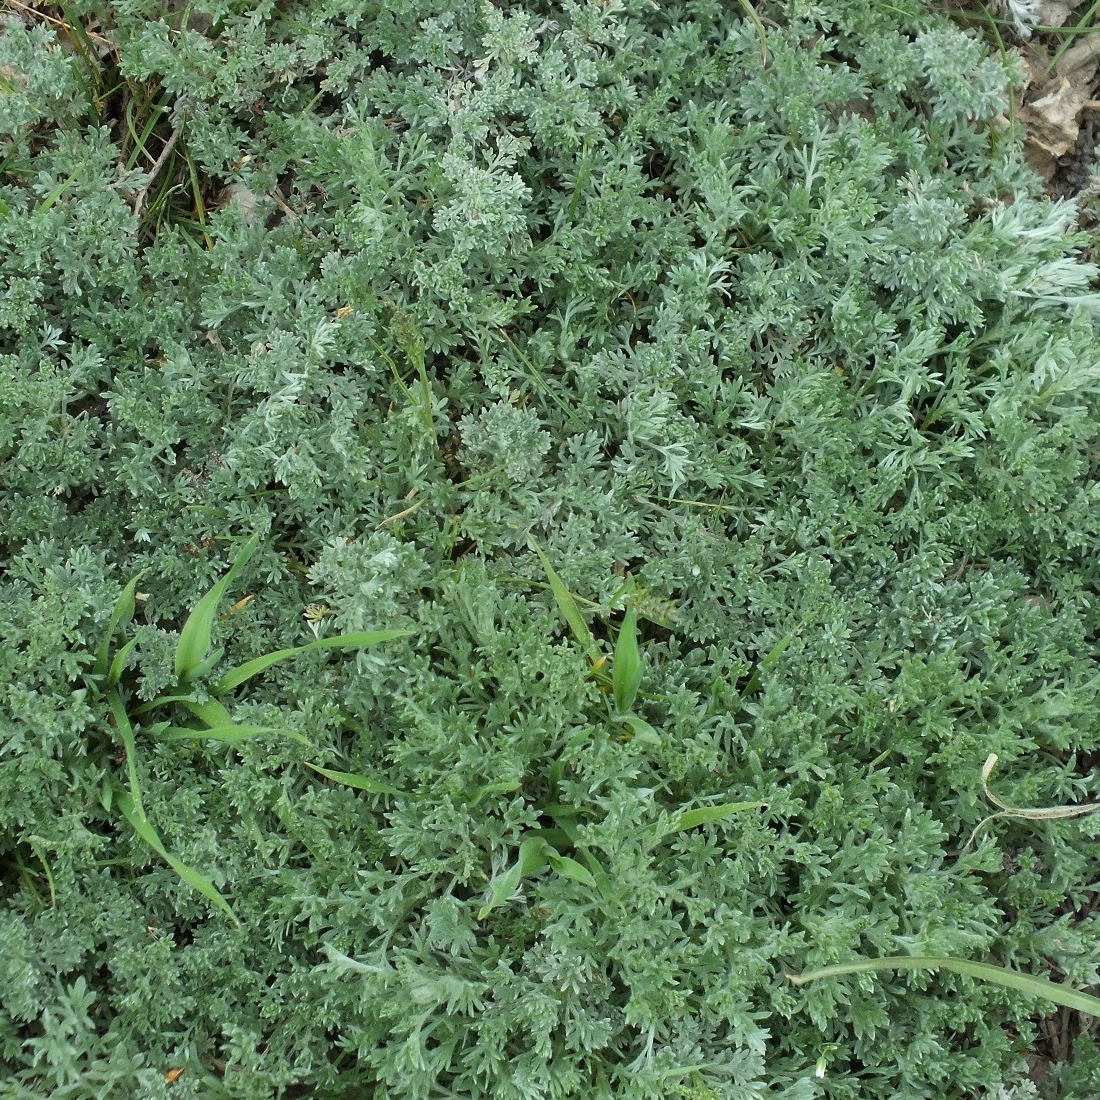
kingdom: Plantae
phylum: Tracheophyta
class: Magnoliopsida
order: Asterales
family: Asteraceae
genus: Artemisia
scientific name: Artemisia austriaca
